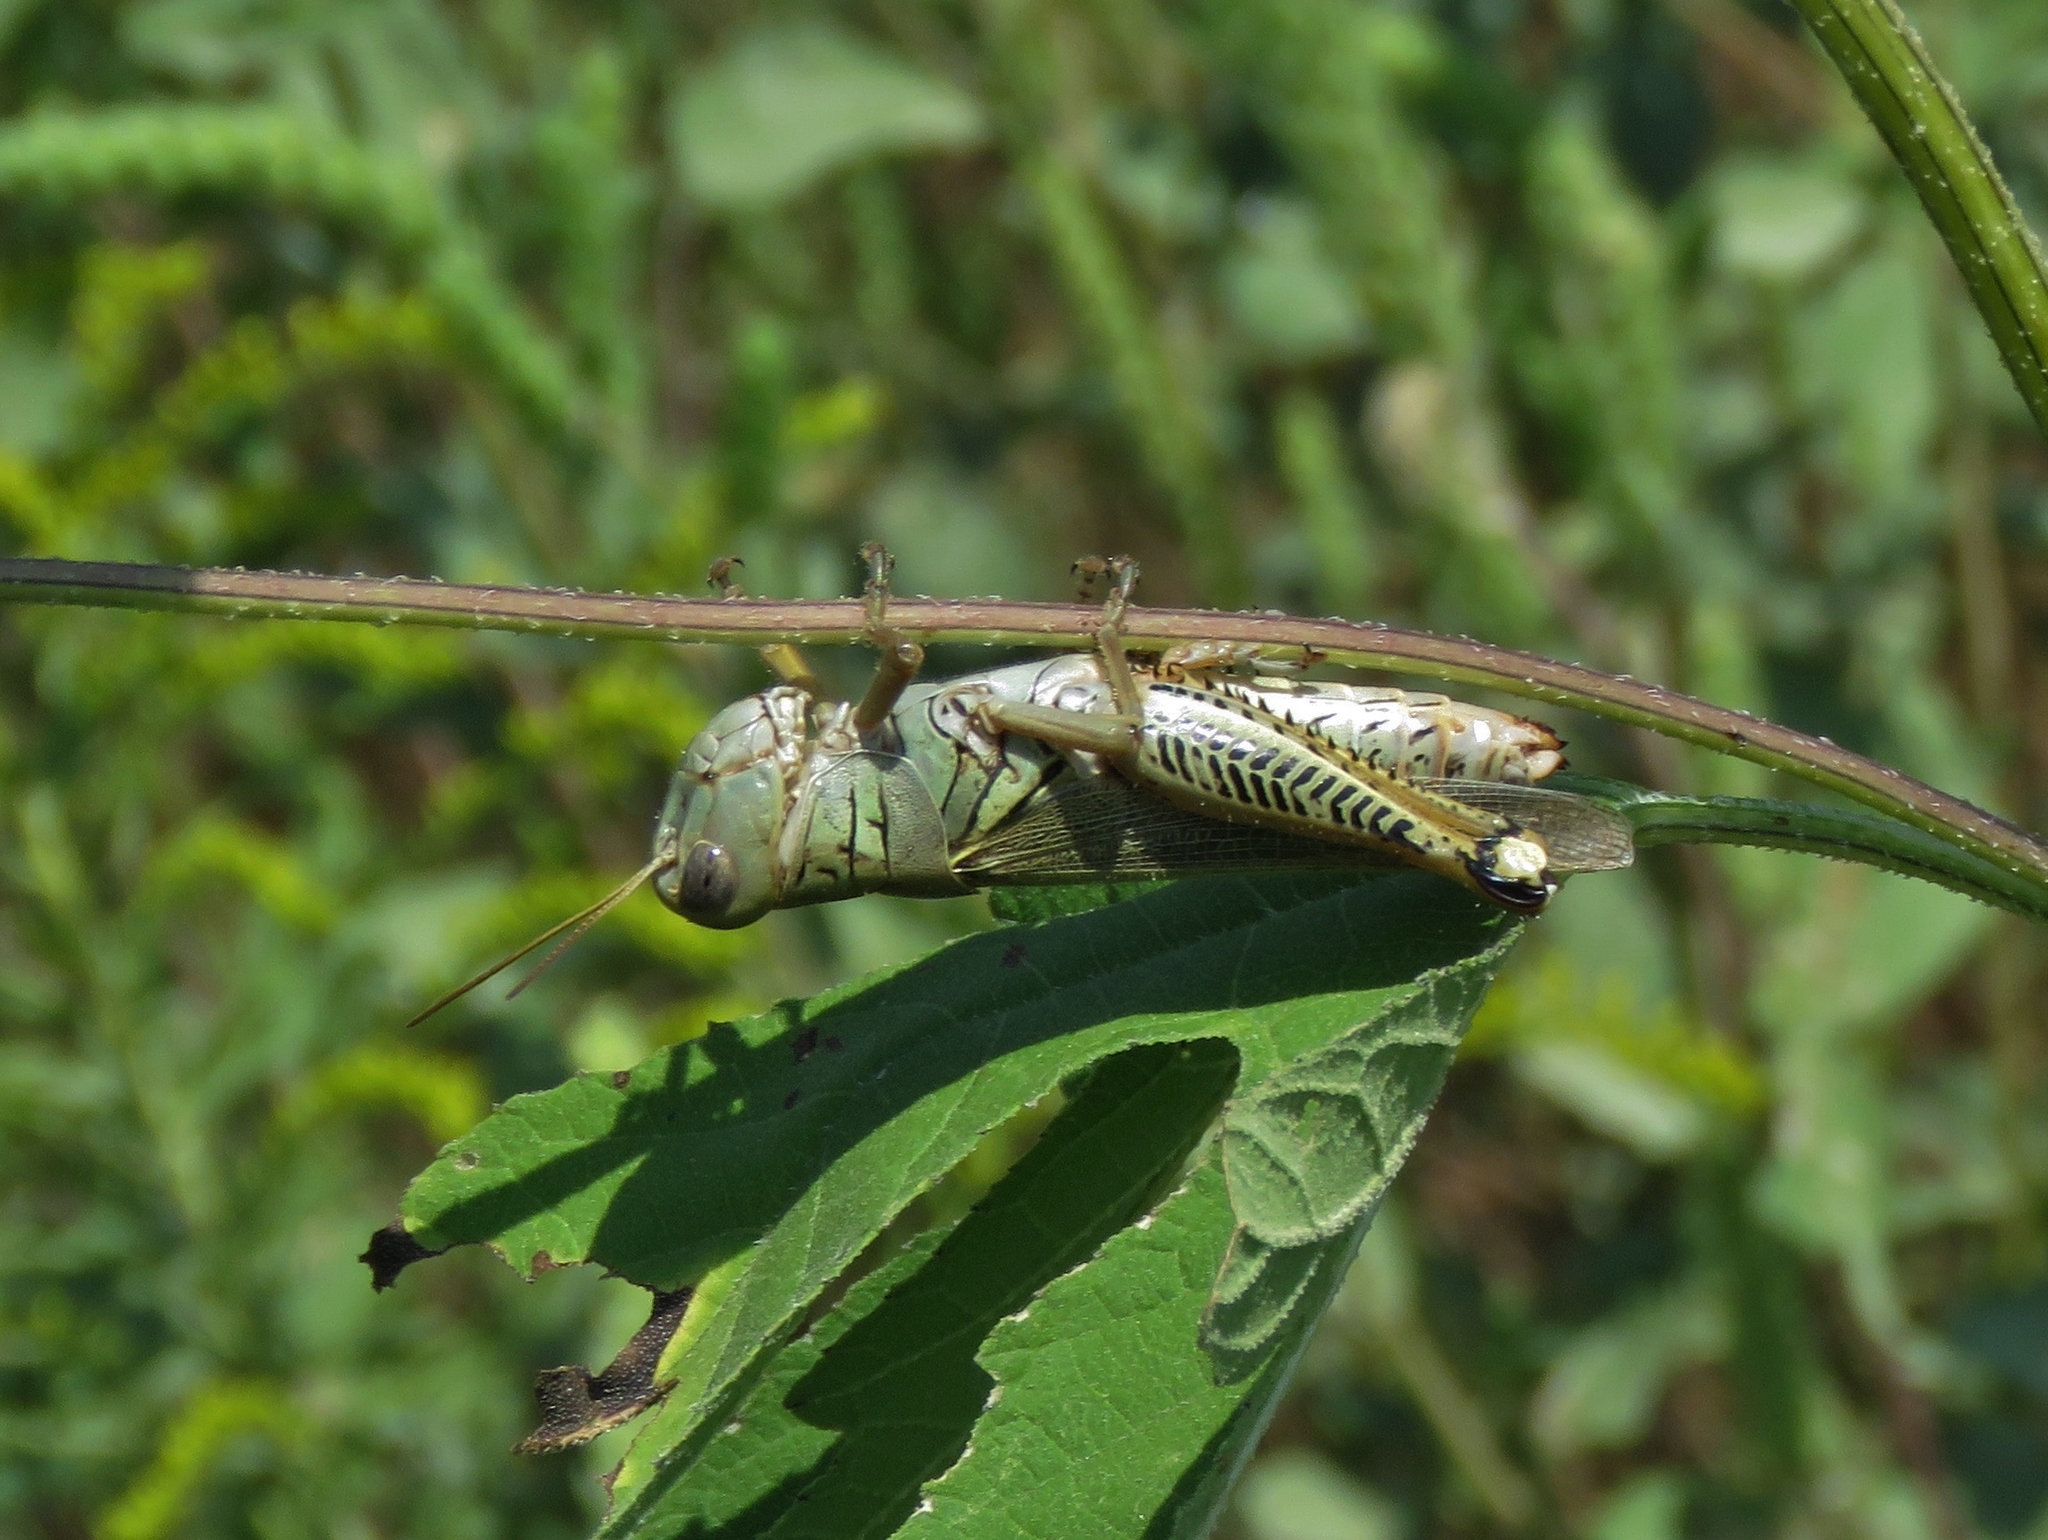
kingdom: Animalia
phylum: Arthropoda
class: Insecta
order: Orthoptera
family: Acrididae
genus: Melanoplus
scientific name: Melanoplus differentialis
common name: Differential grasshopper
